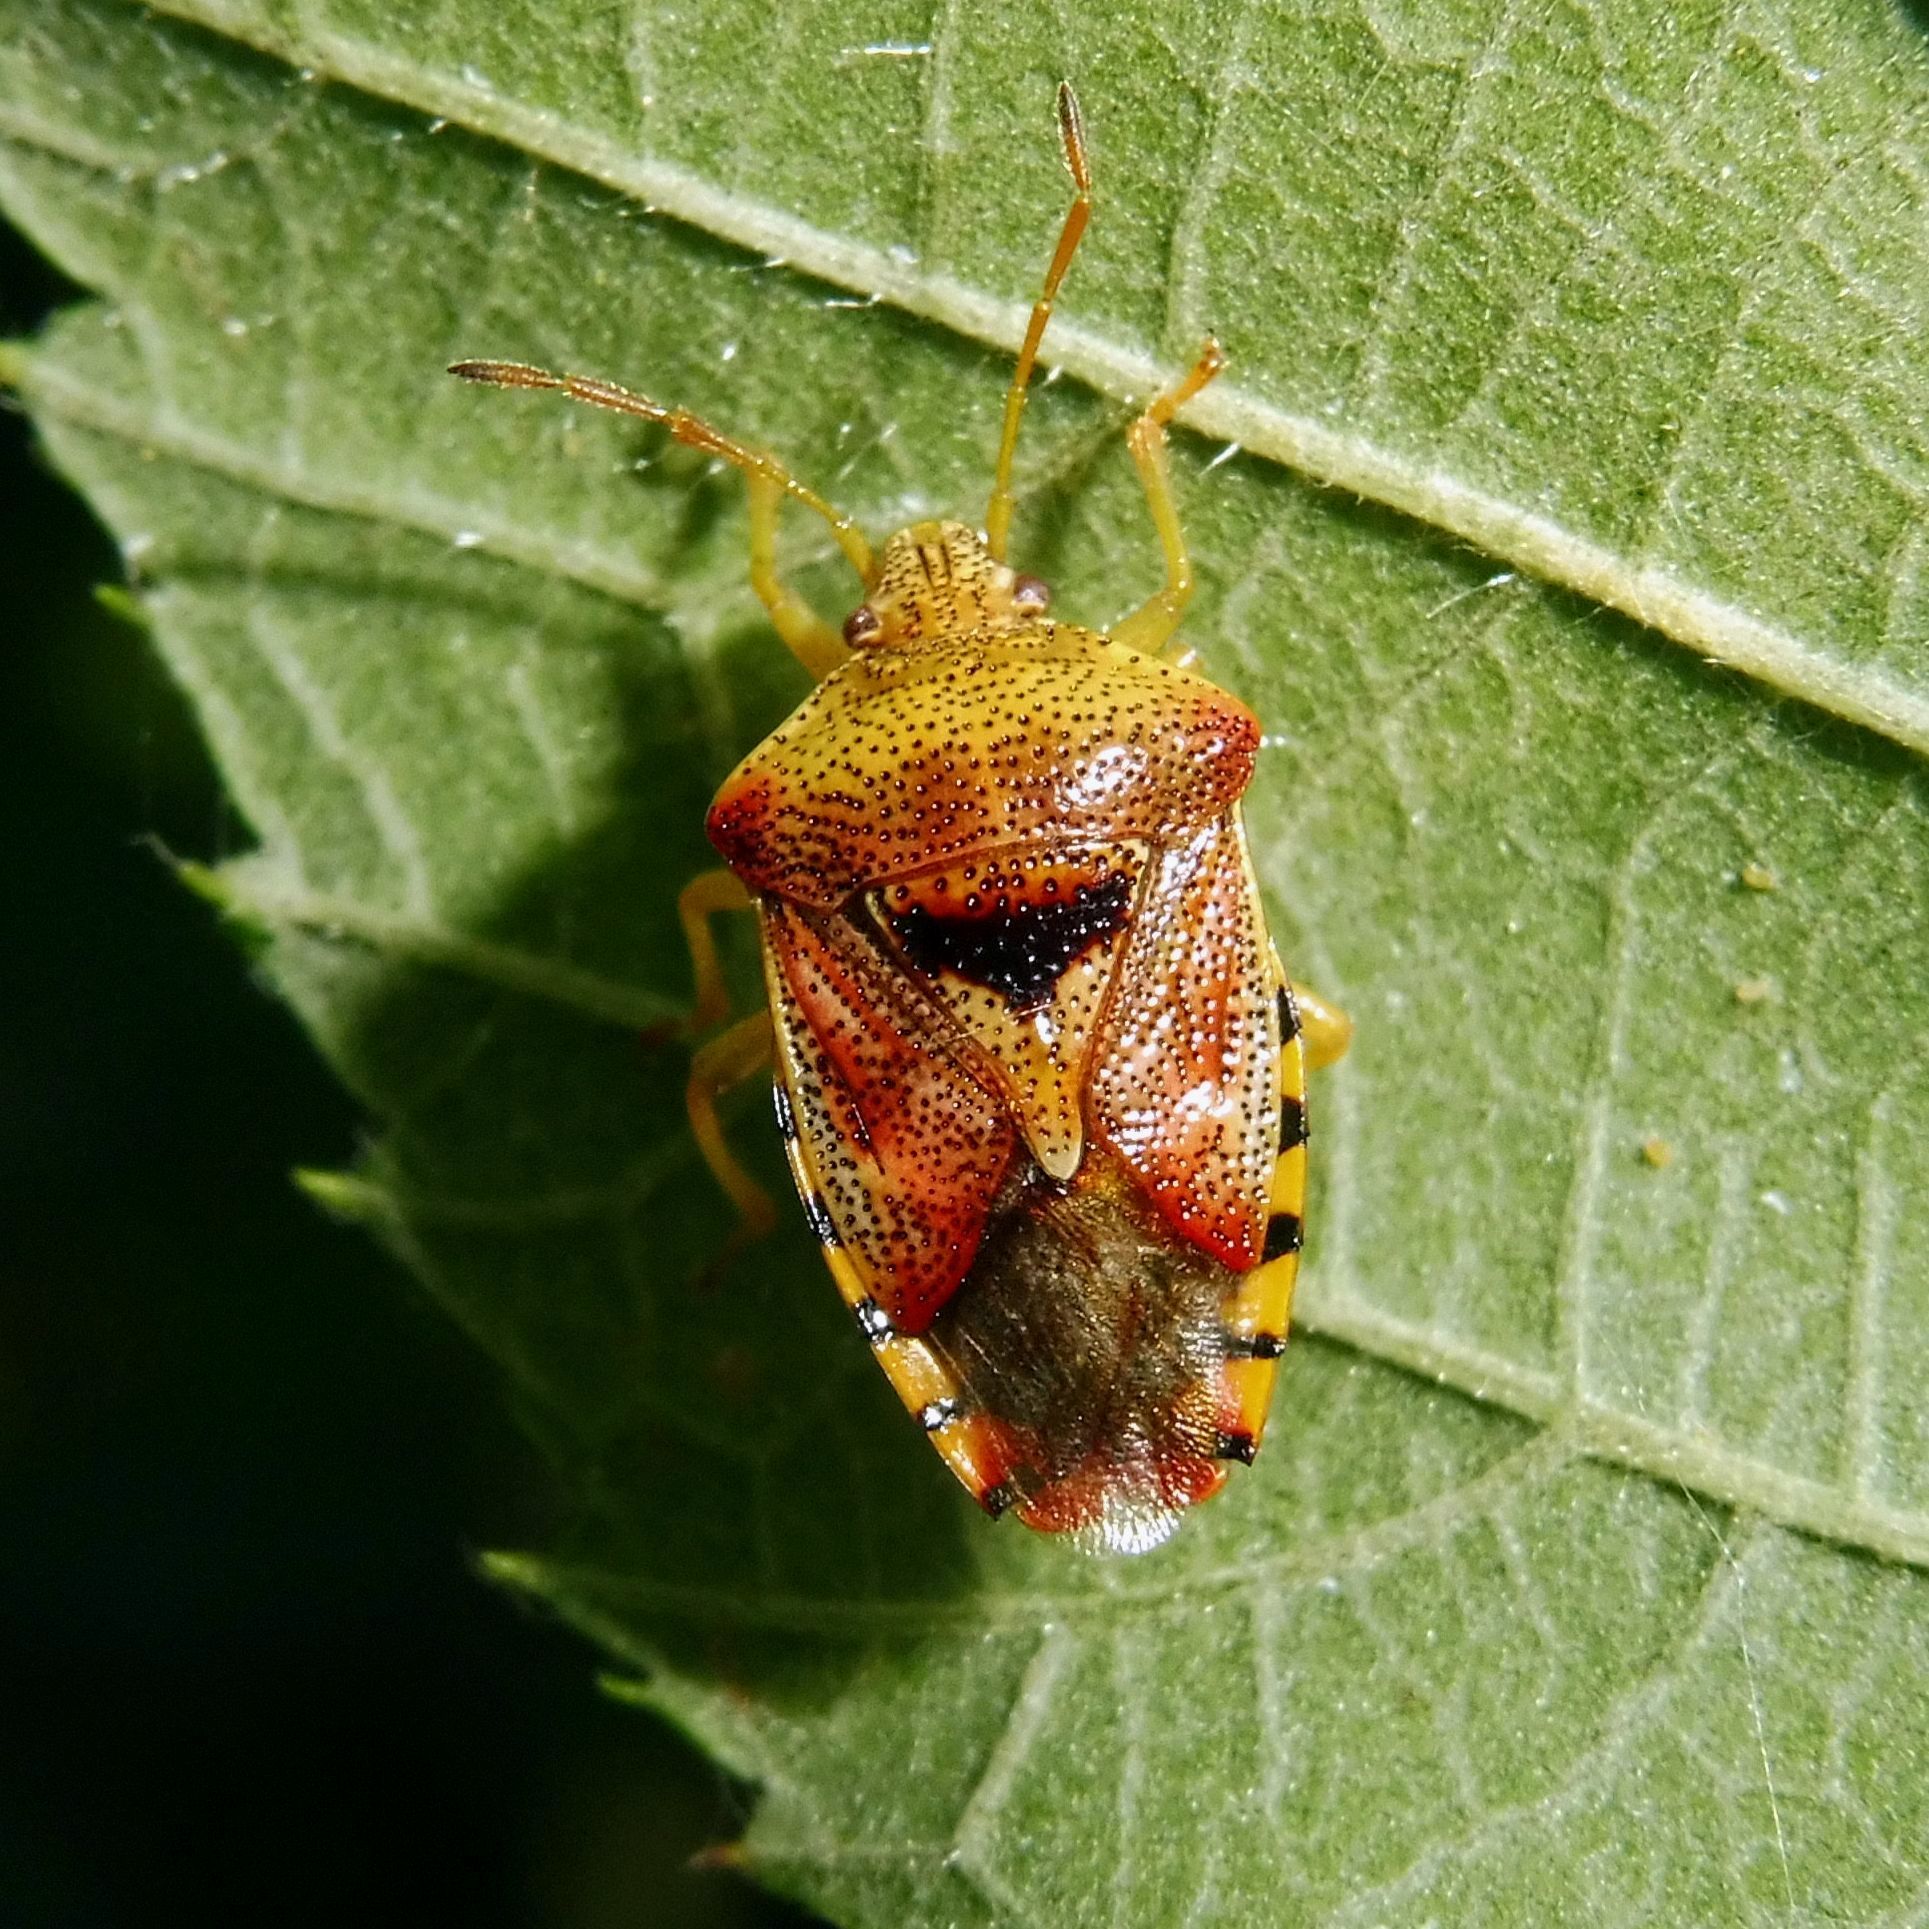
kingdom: Animalia
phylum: Arthropoda
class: Insecta
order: Hemiptera
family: Acanthosomatidae
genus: Elasmucha
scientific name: Elasmucha grisea
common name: Parent bug
